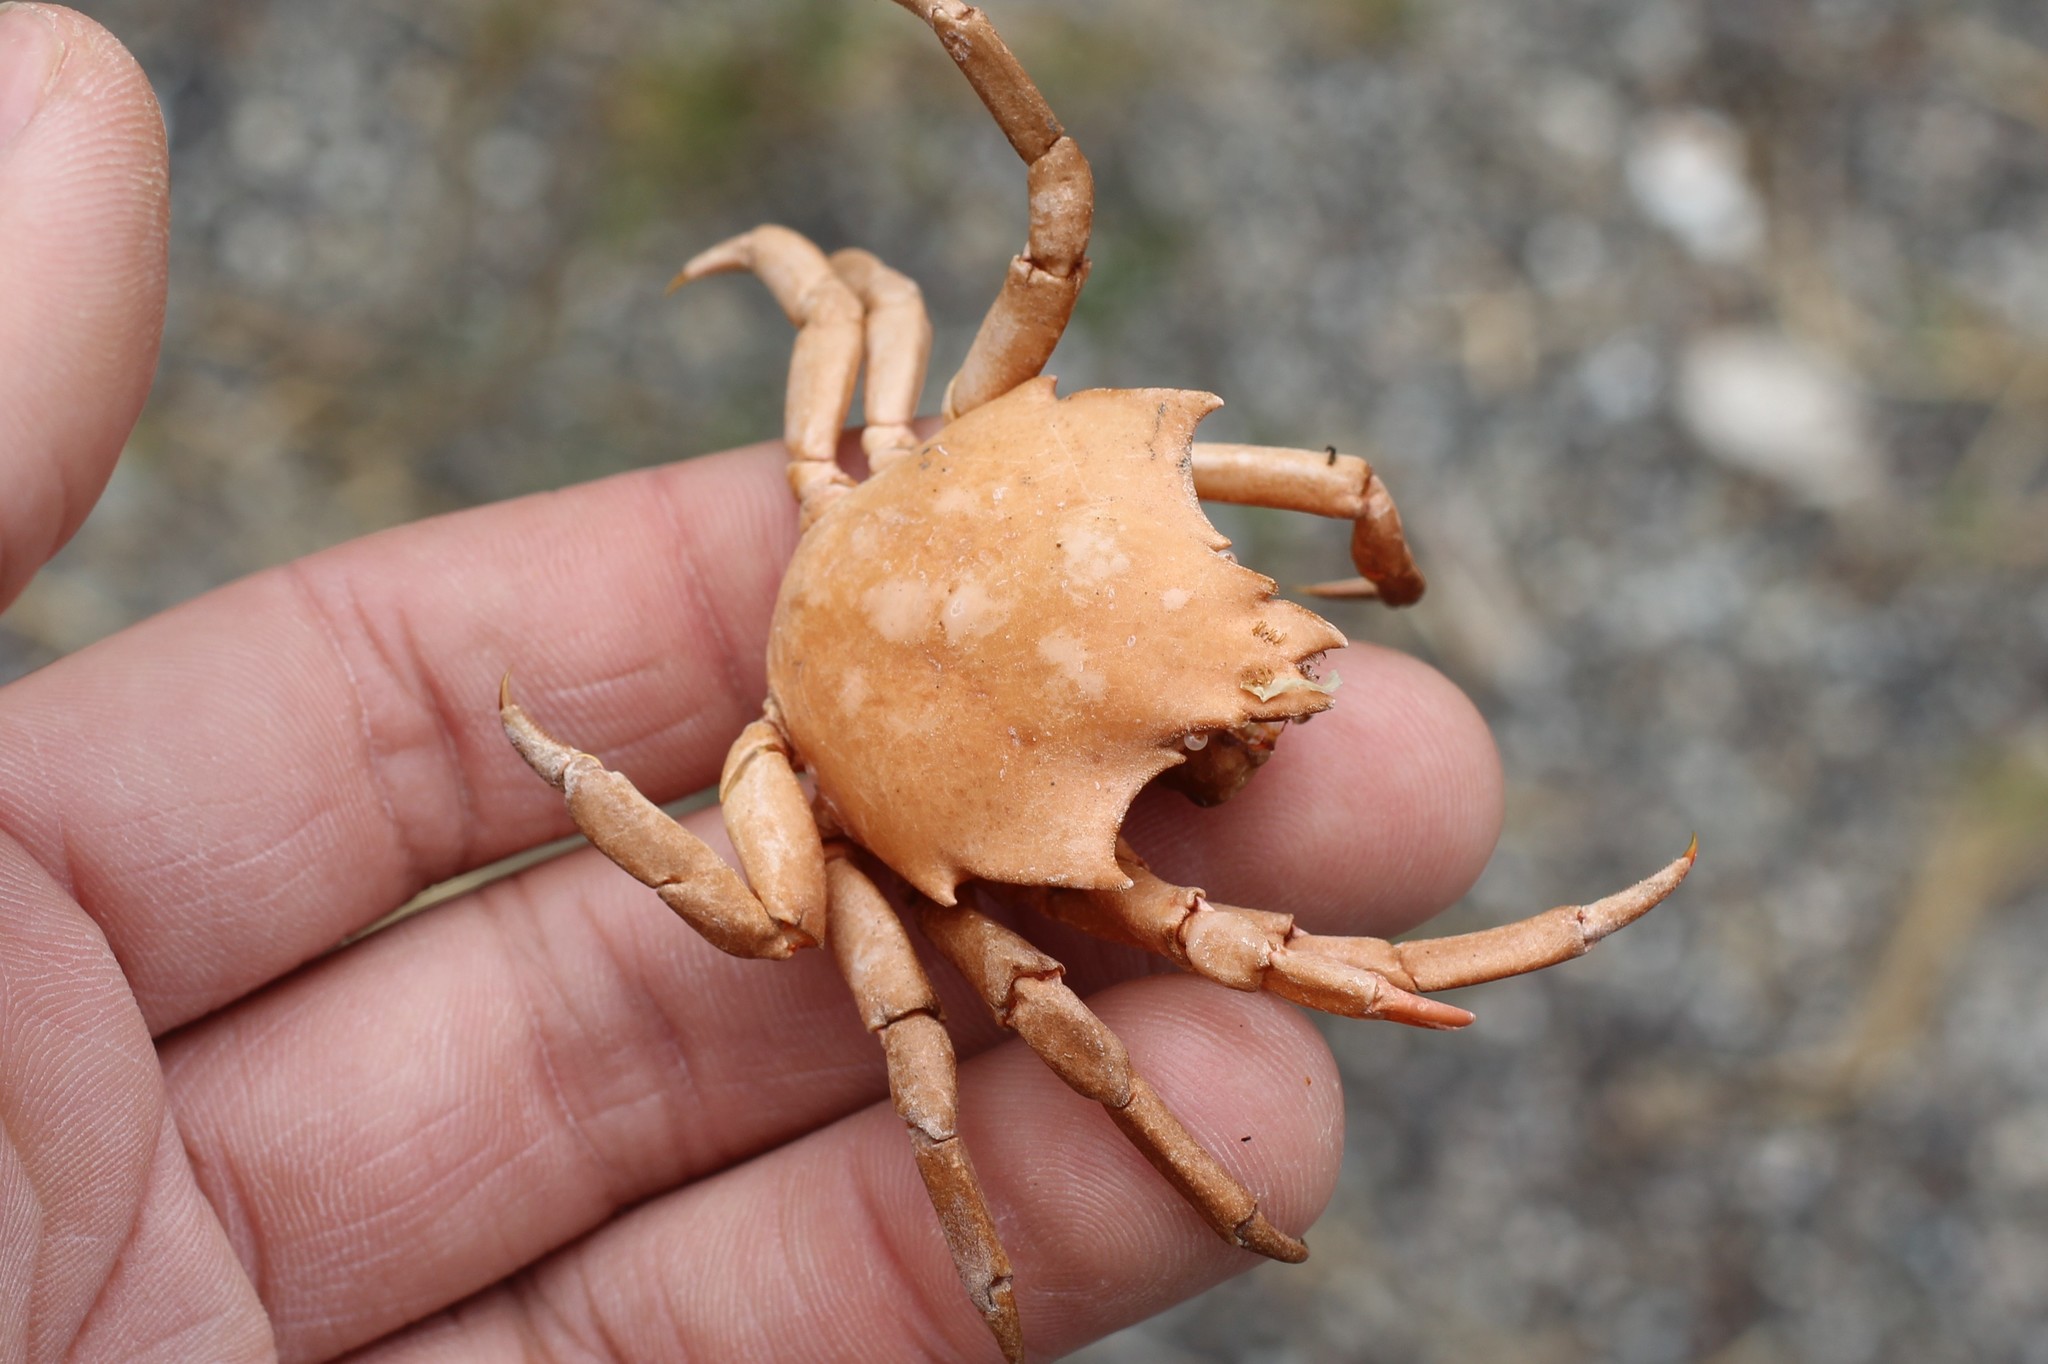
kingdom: Animalia
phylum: Arthropoda
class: Malacostraca
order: Decapoda
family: Epialtidae
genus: Pugettia
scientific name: Pugettia producta
